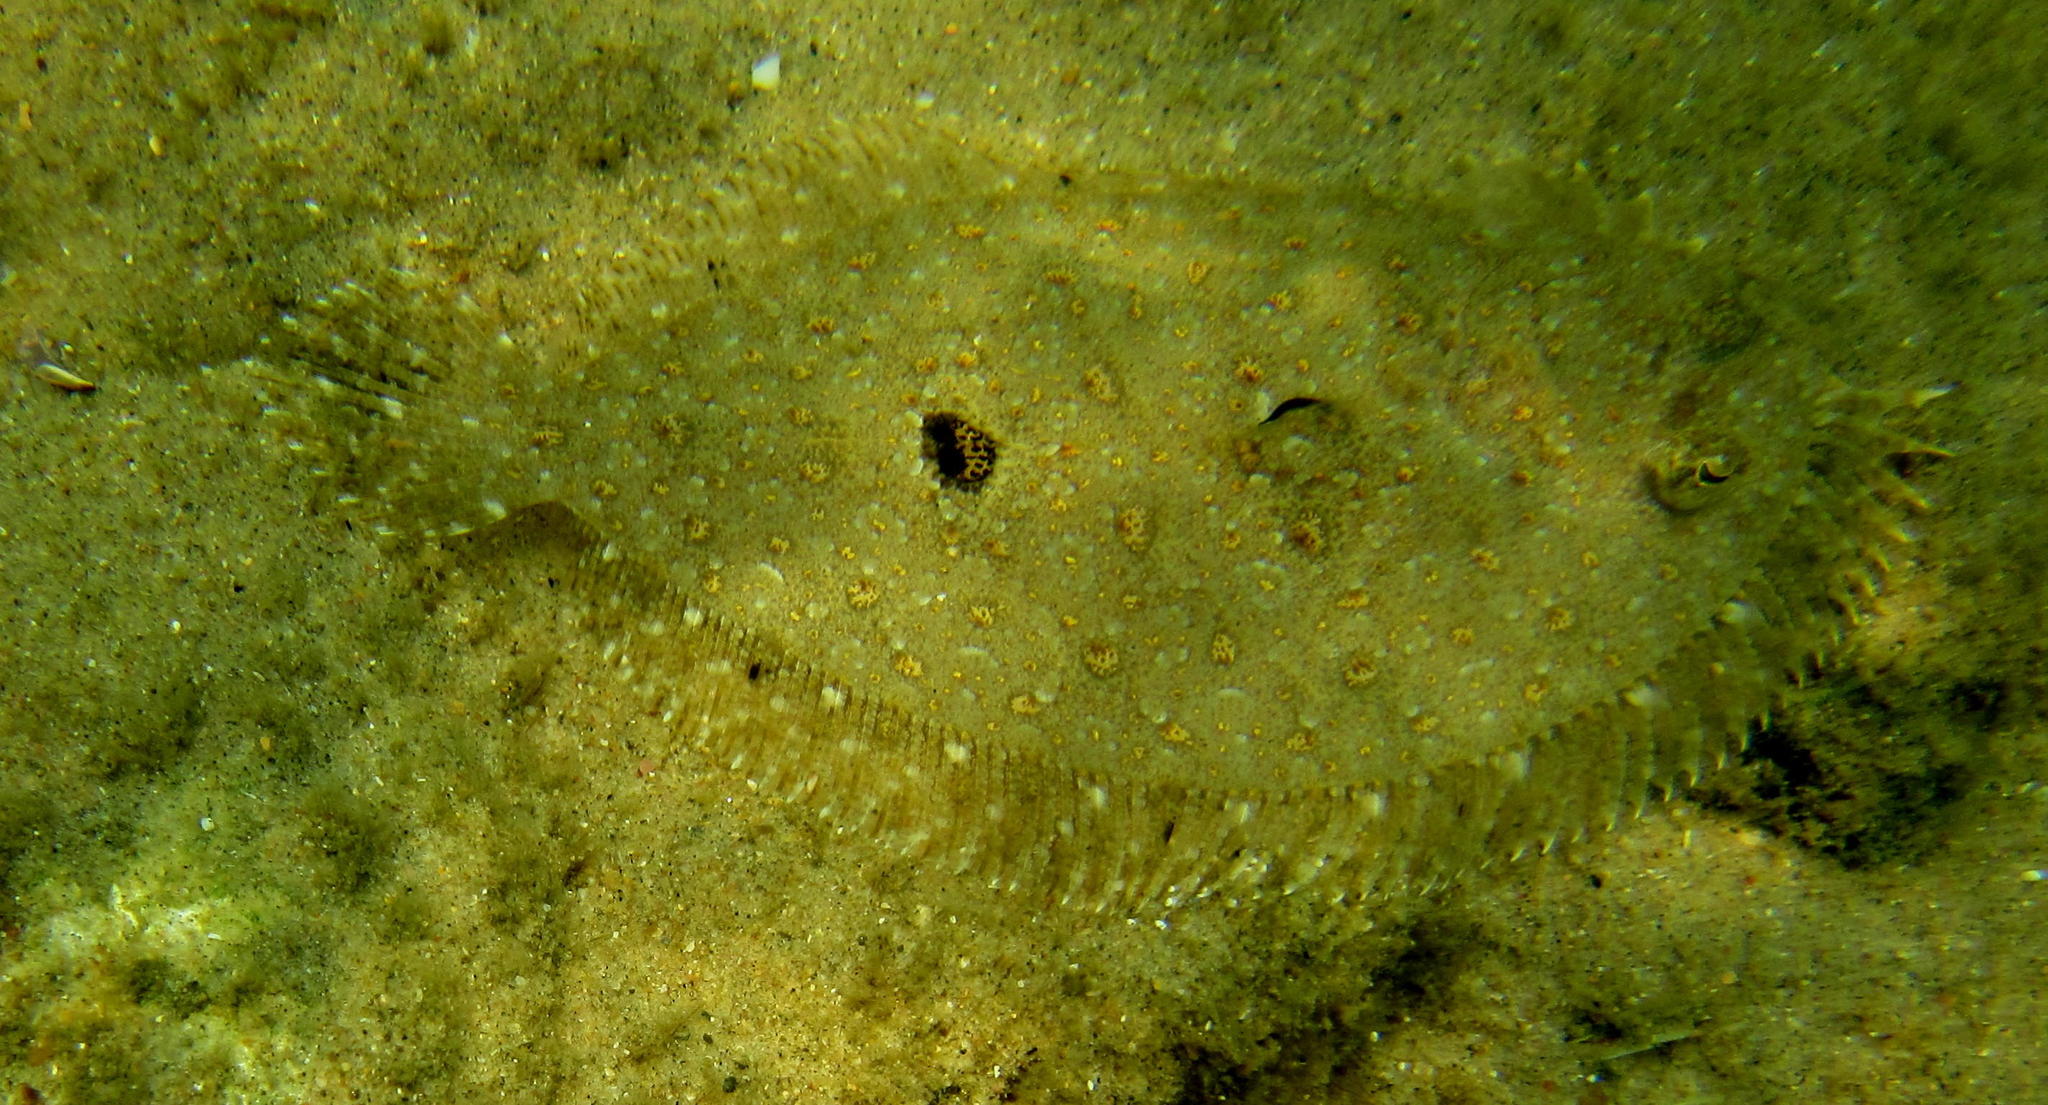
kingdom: Animalia
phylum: Chordata
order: Pleuronectiformes
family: Bothidae
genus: Bothus
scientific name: Bothus pantherinus
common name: Leopard flounder
